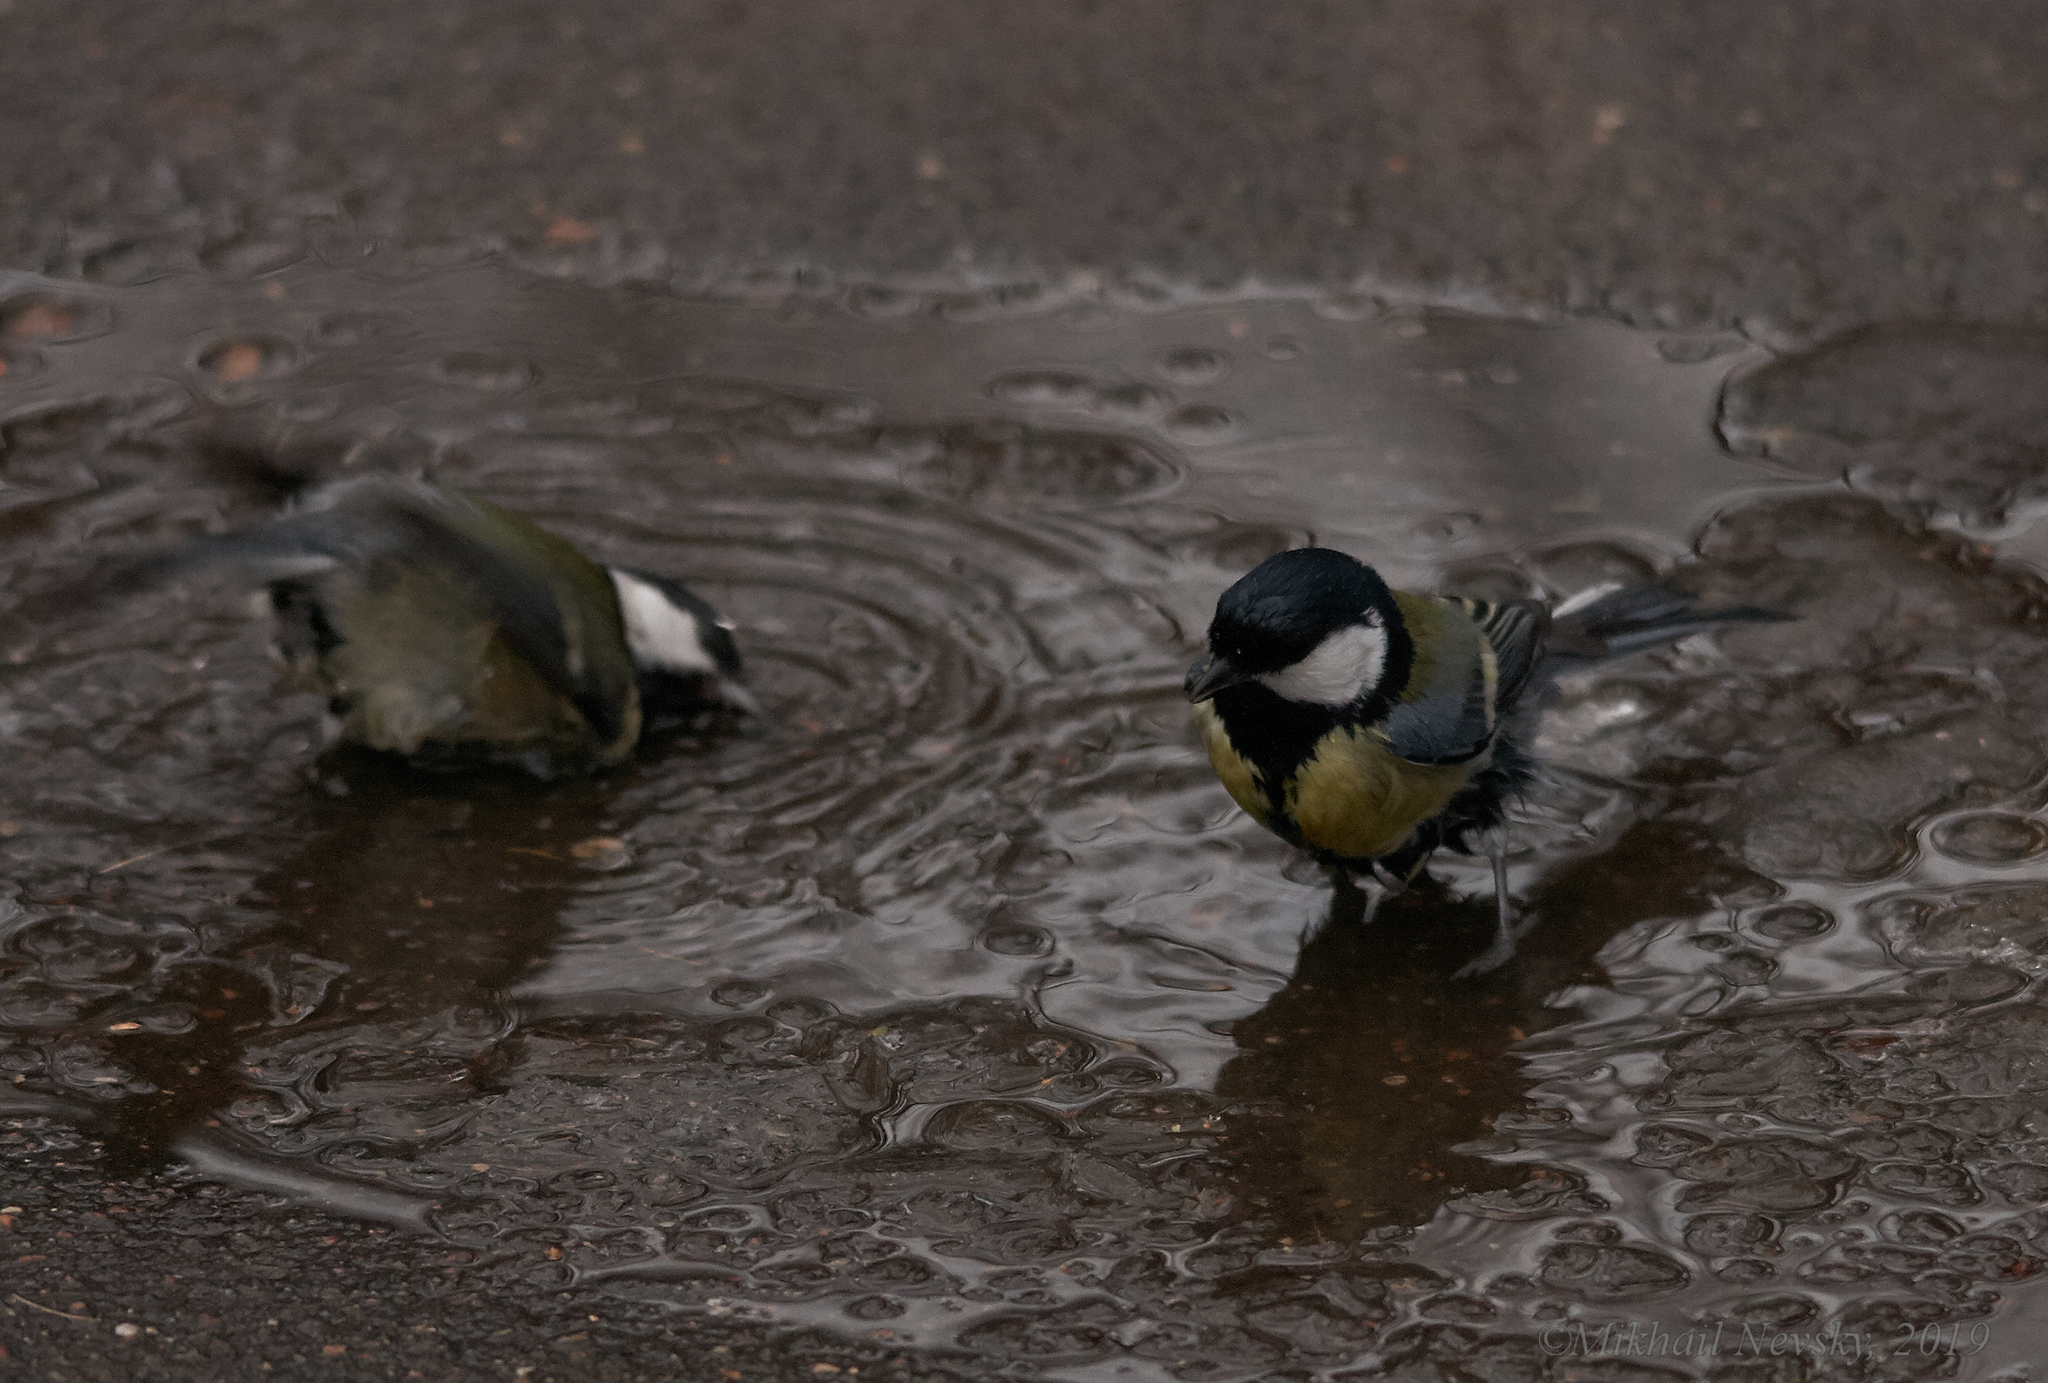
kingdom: Animalia
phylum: Chordata
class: Aves
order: Passeriformes
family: Paridae
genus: Parus
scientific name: Parus major
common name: Great tit
